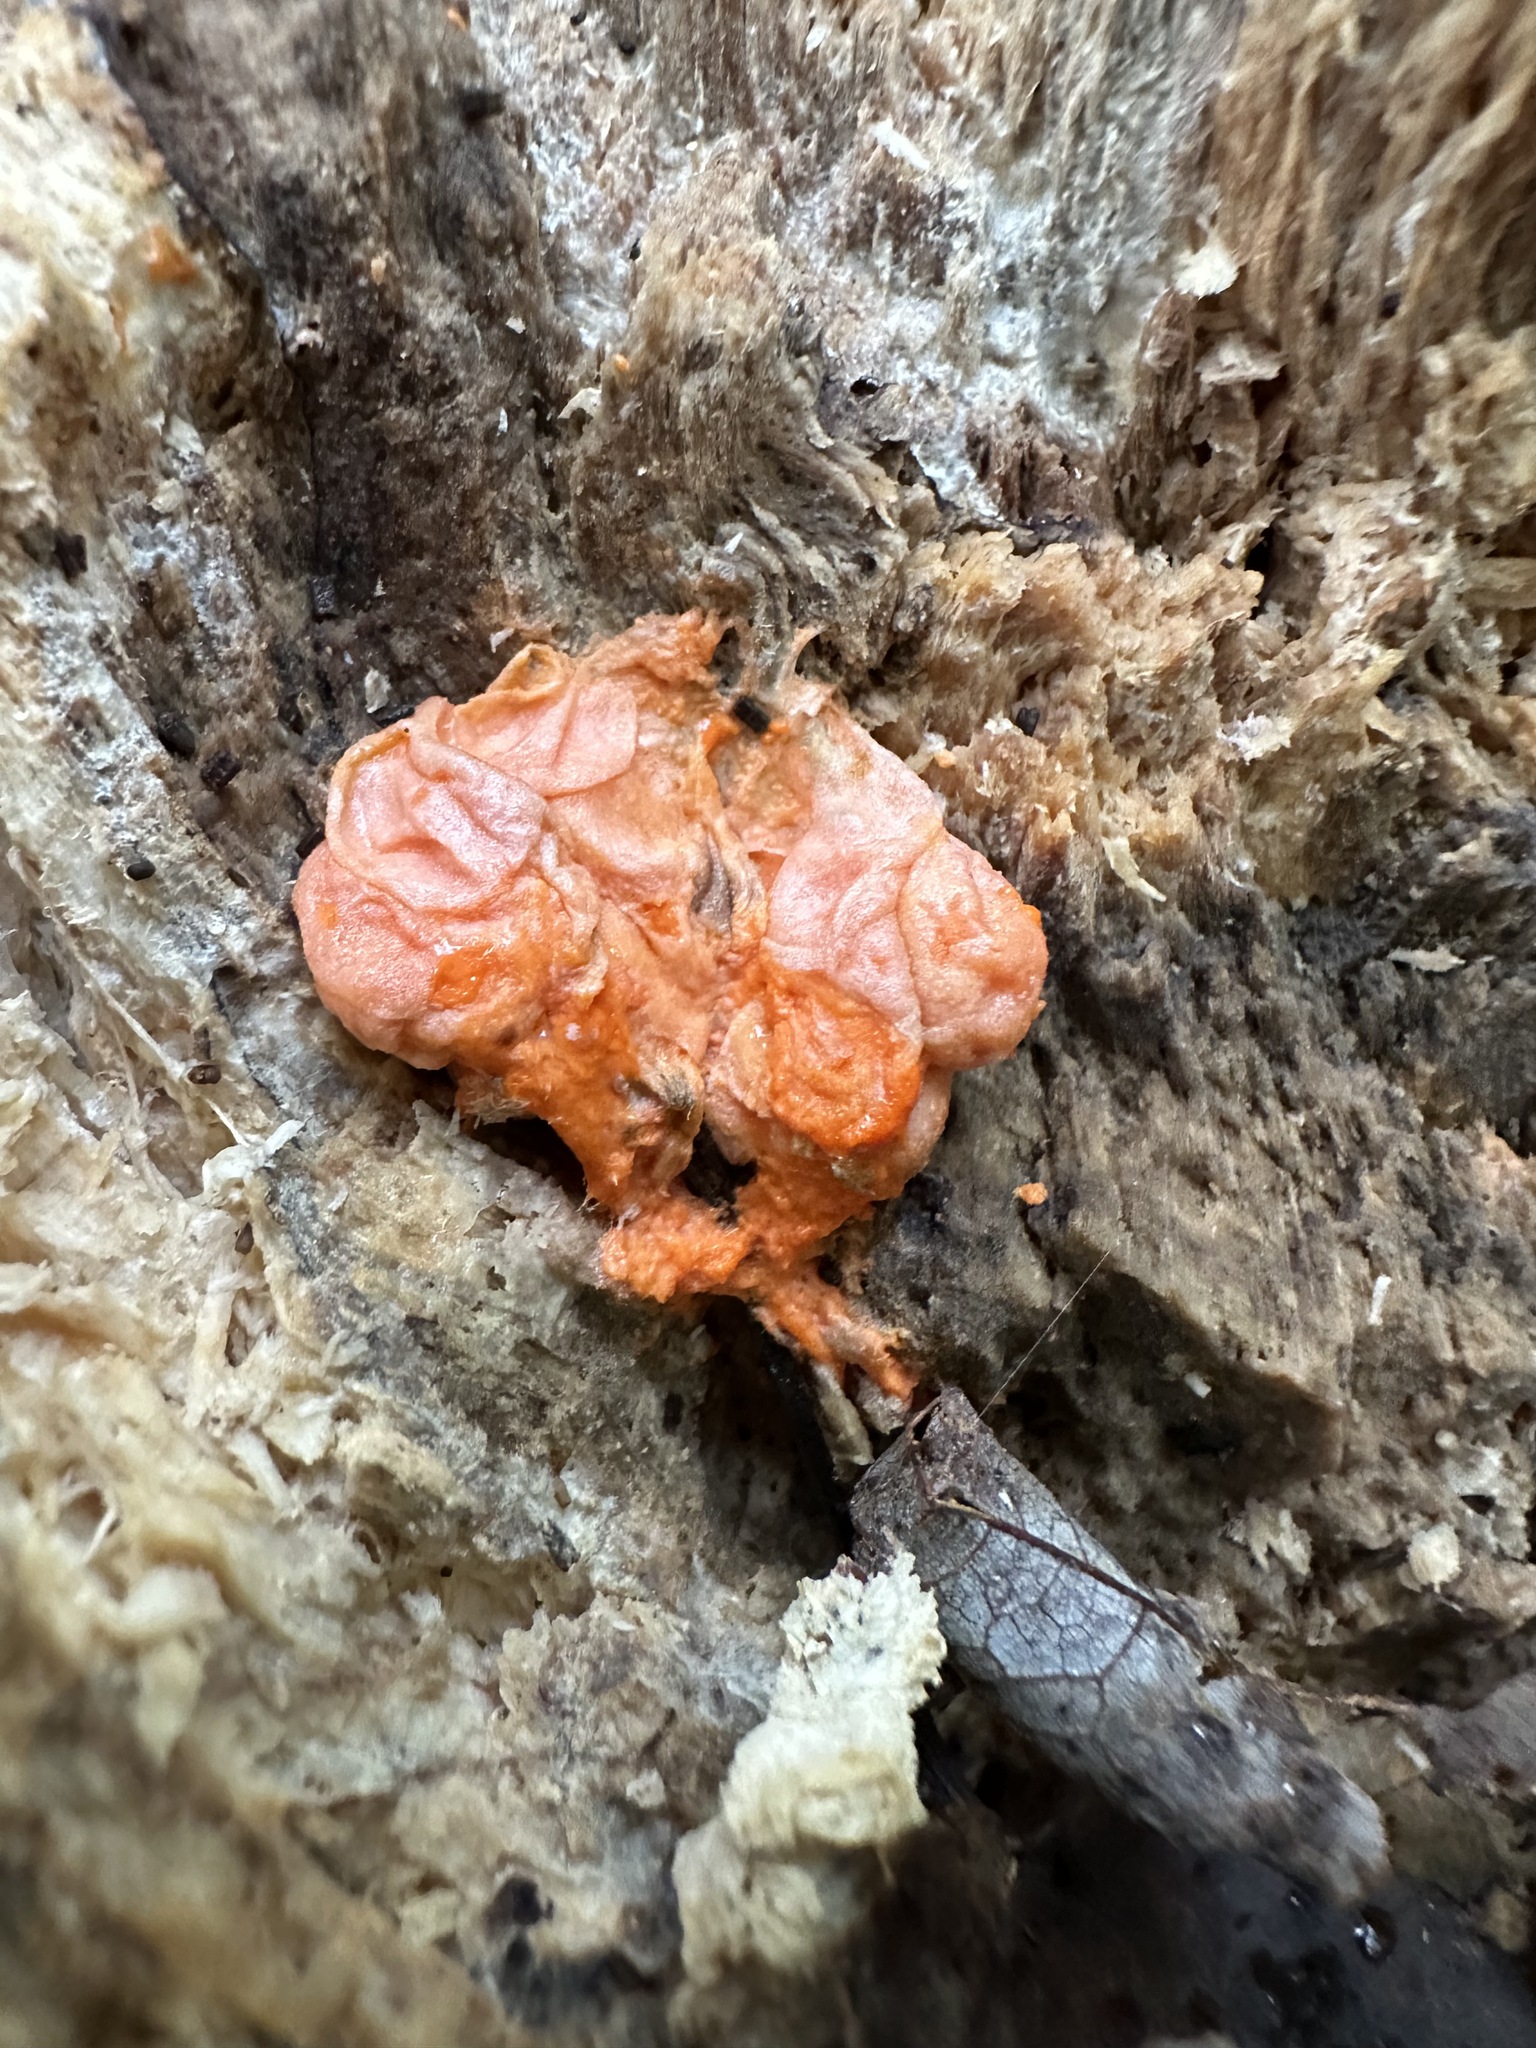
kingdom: Protozoa
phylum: Mycetozoa
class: Myxomycetes
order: Cribrariales
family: Tubiferaceae
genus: Lycogala
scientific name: Lycogala epidendrum
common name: Wolf's milk
